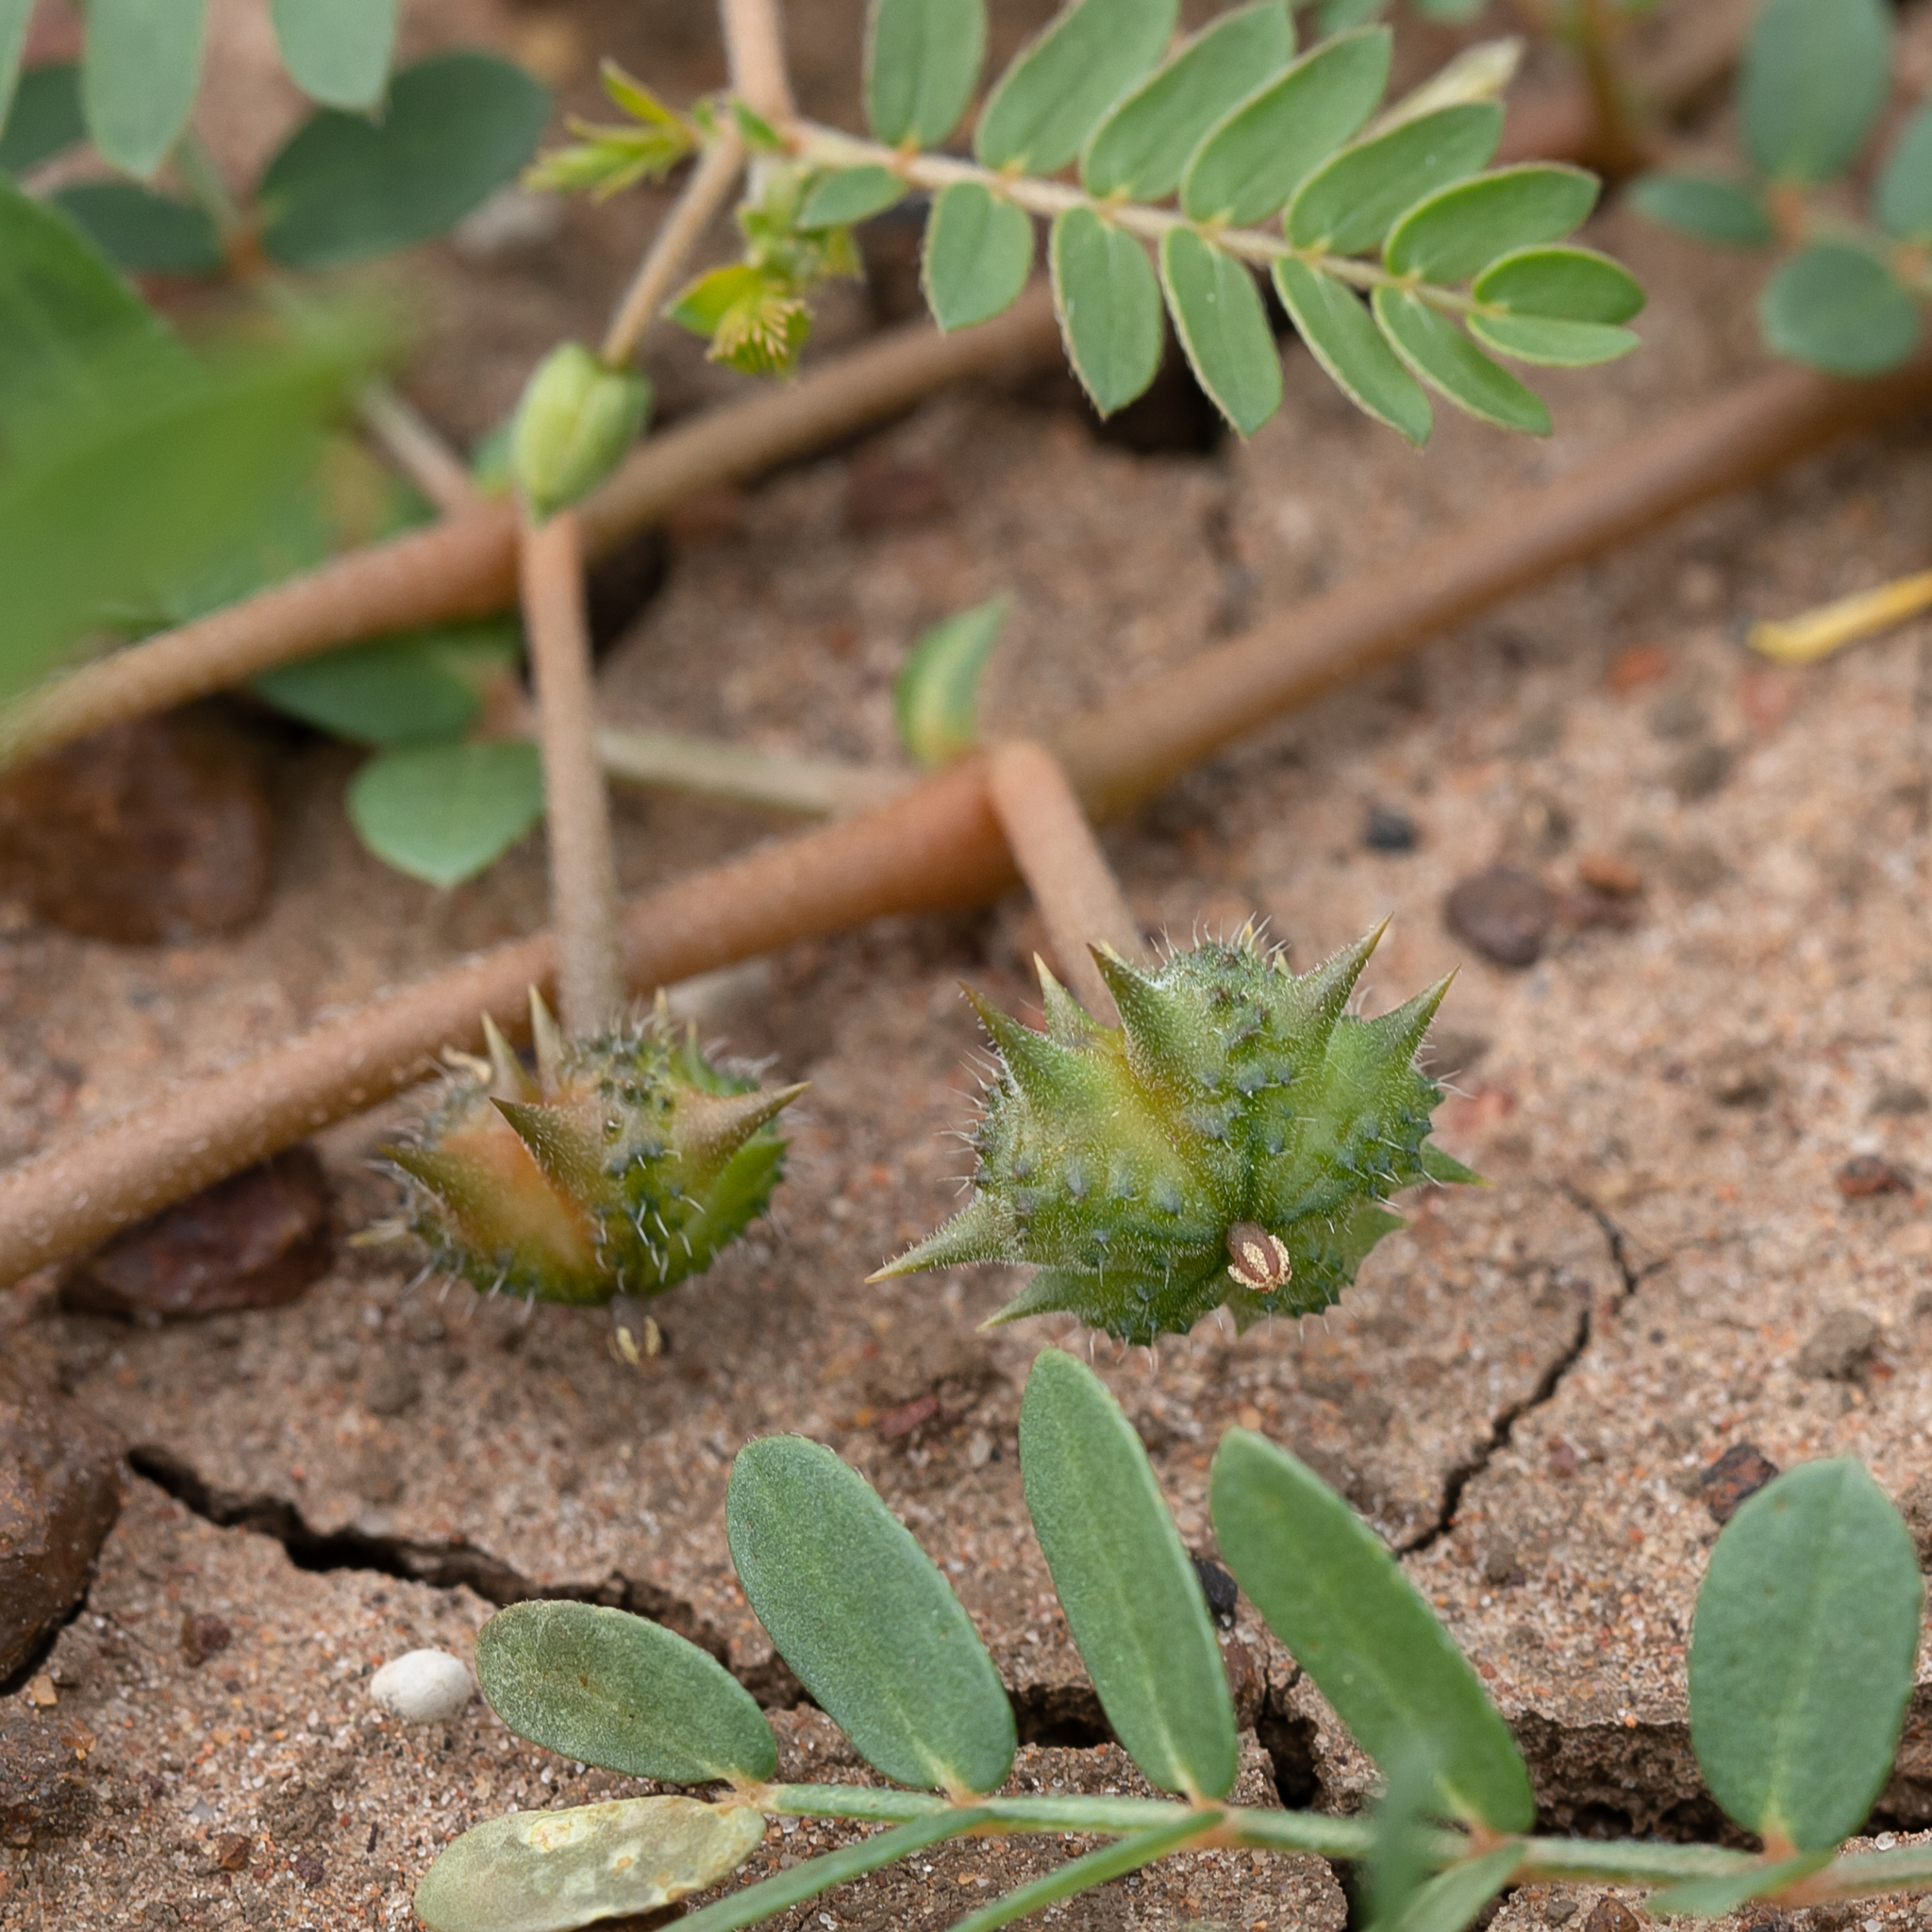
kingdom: Plantae
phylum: Tracheophyta
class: Magnoliopsida
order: Zygophyllales
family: Zygophyllaceae
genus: Tribulus
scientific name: Tribulus terrestris
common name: Puncturevine
